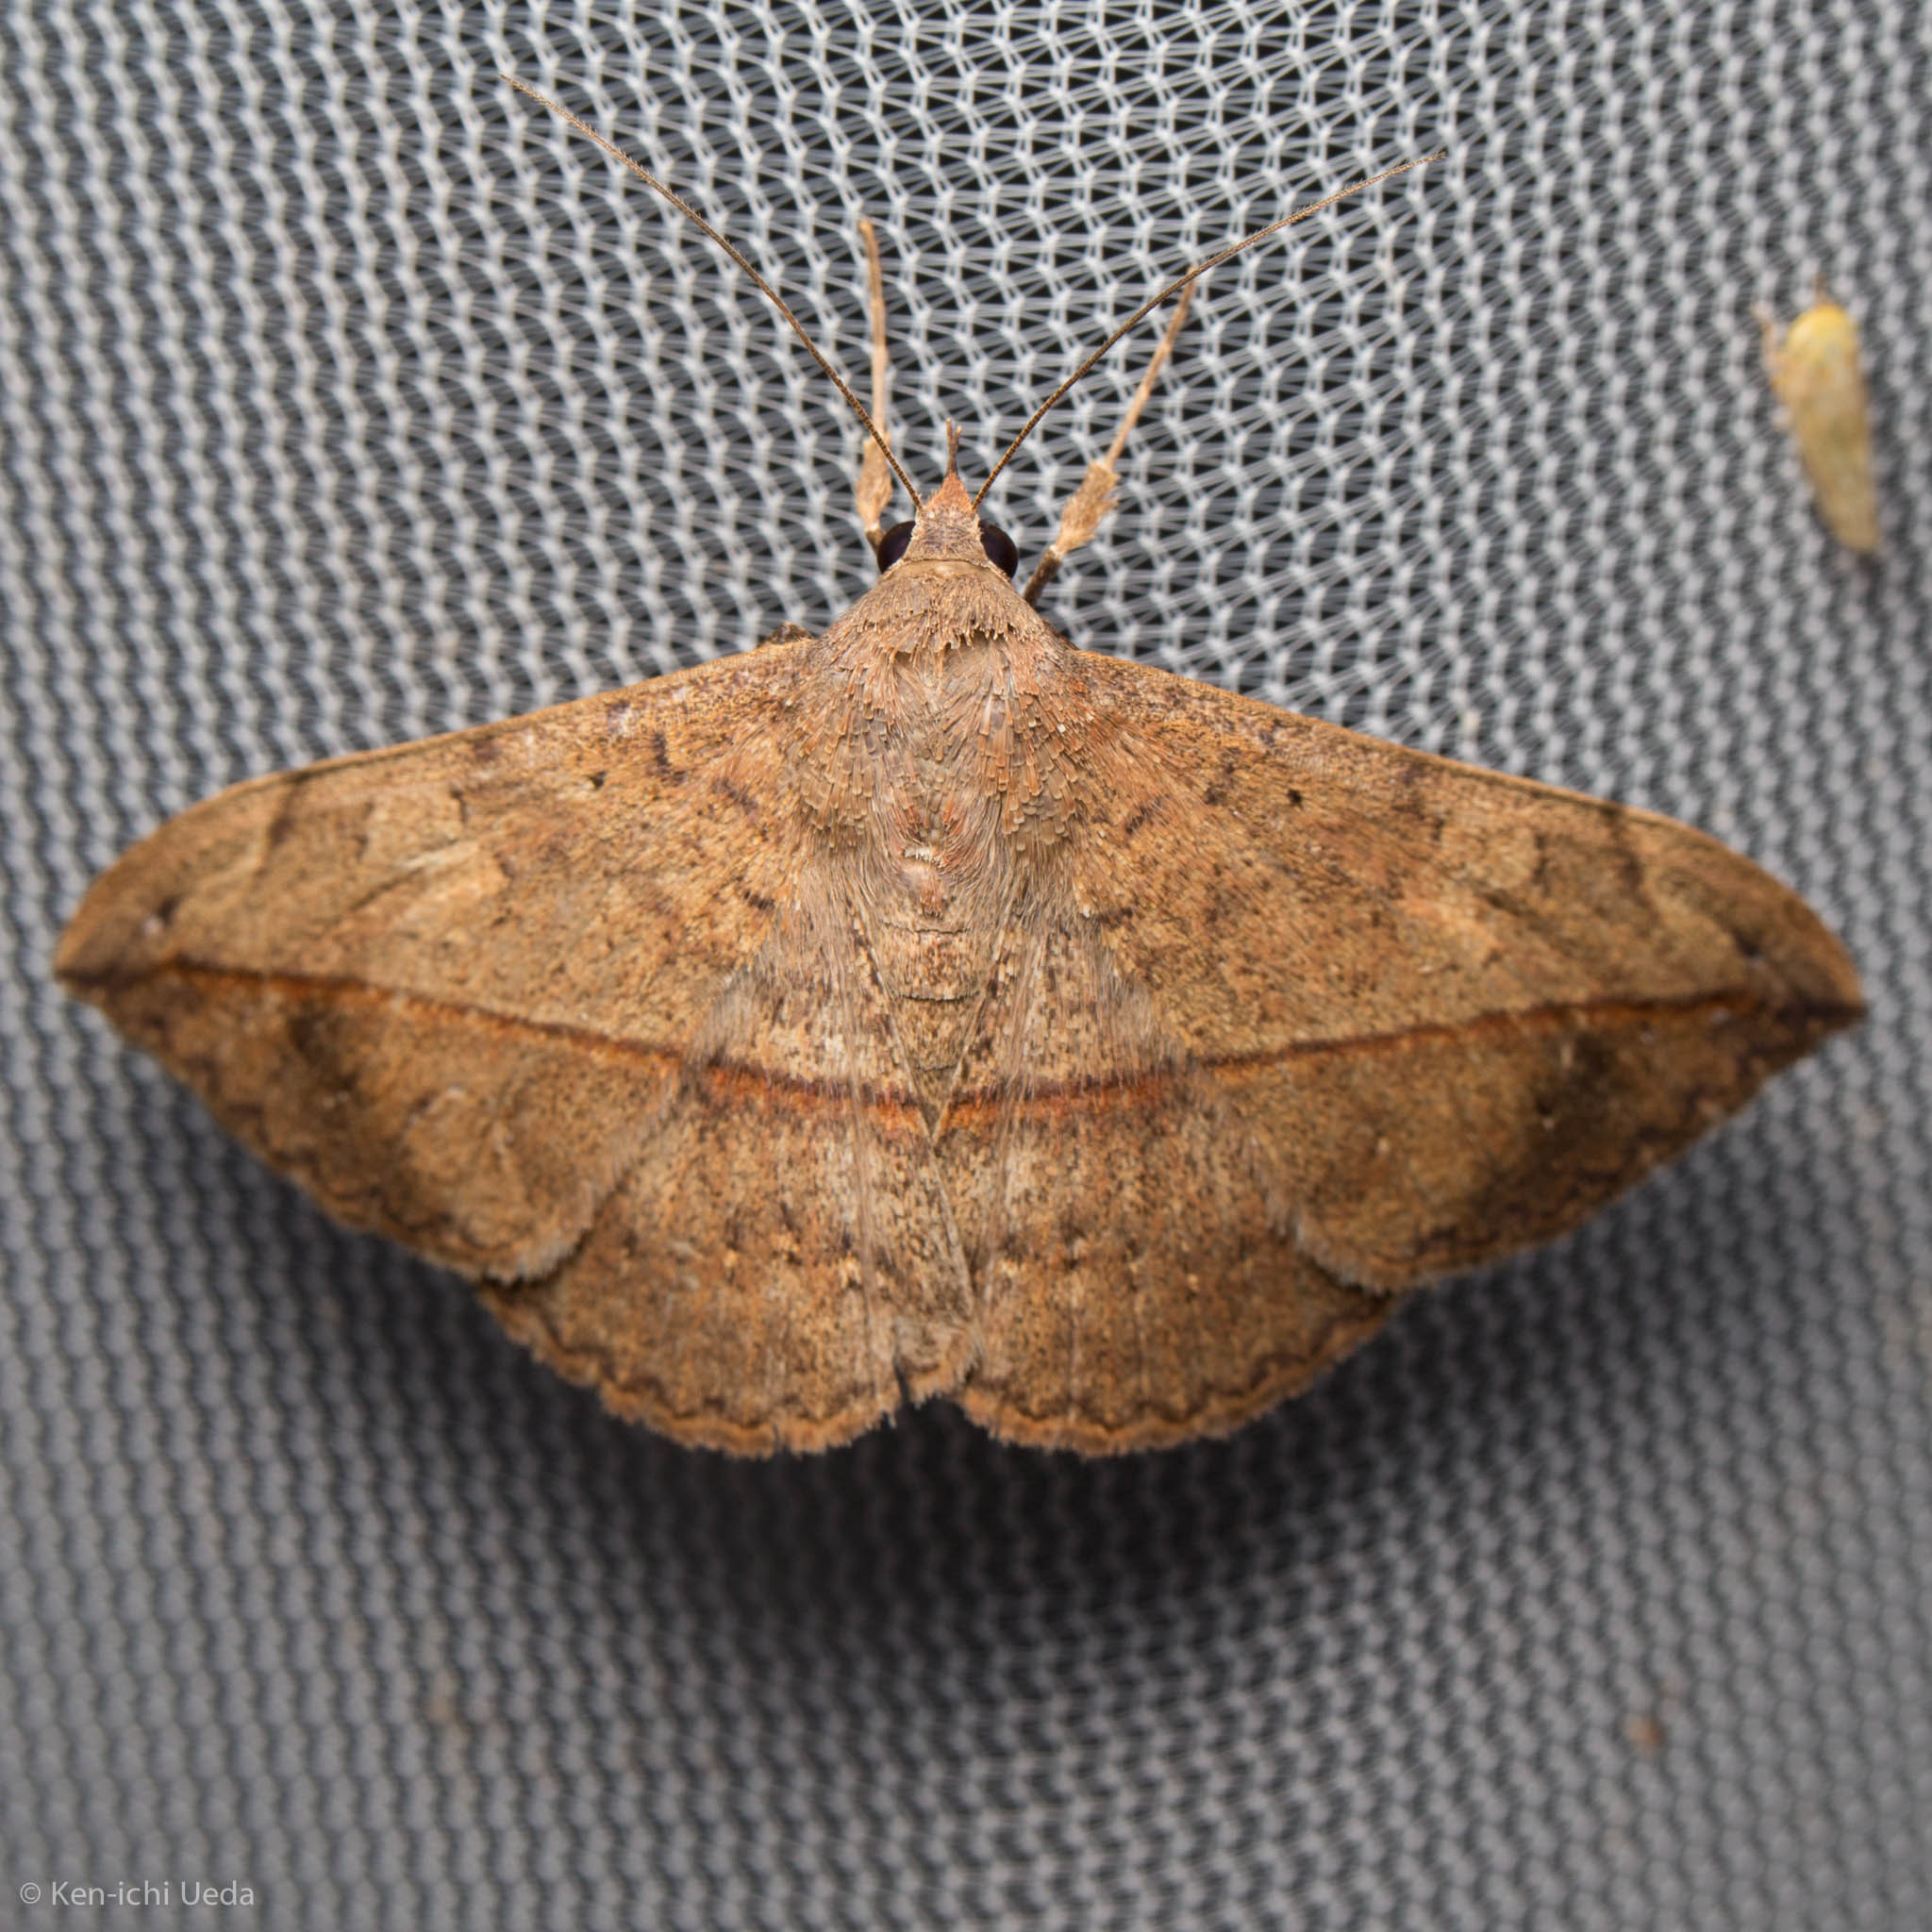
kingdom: Animalia
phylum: Arthropoda
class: Insecta
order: Lepidoptera
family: Erebidae
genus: Anticarsia
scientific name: Anticarsia gemmatalis
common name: Cutworm moth
